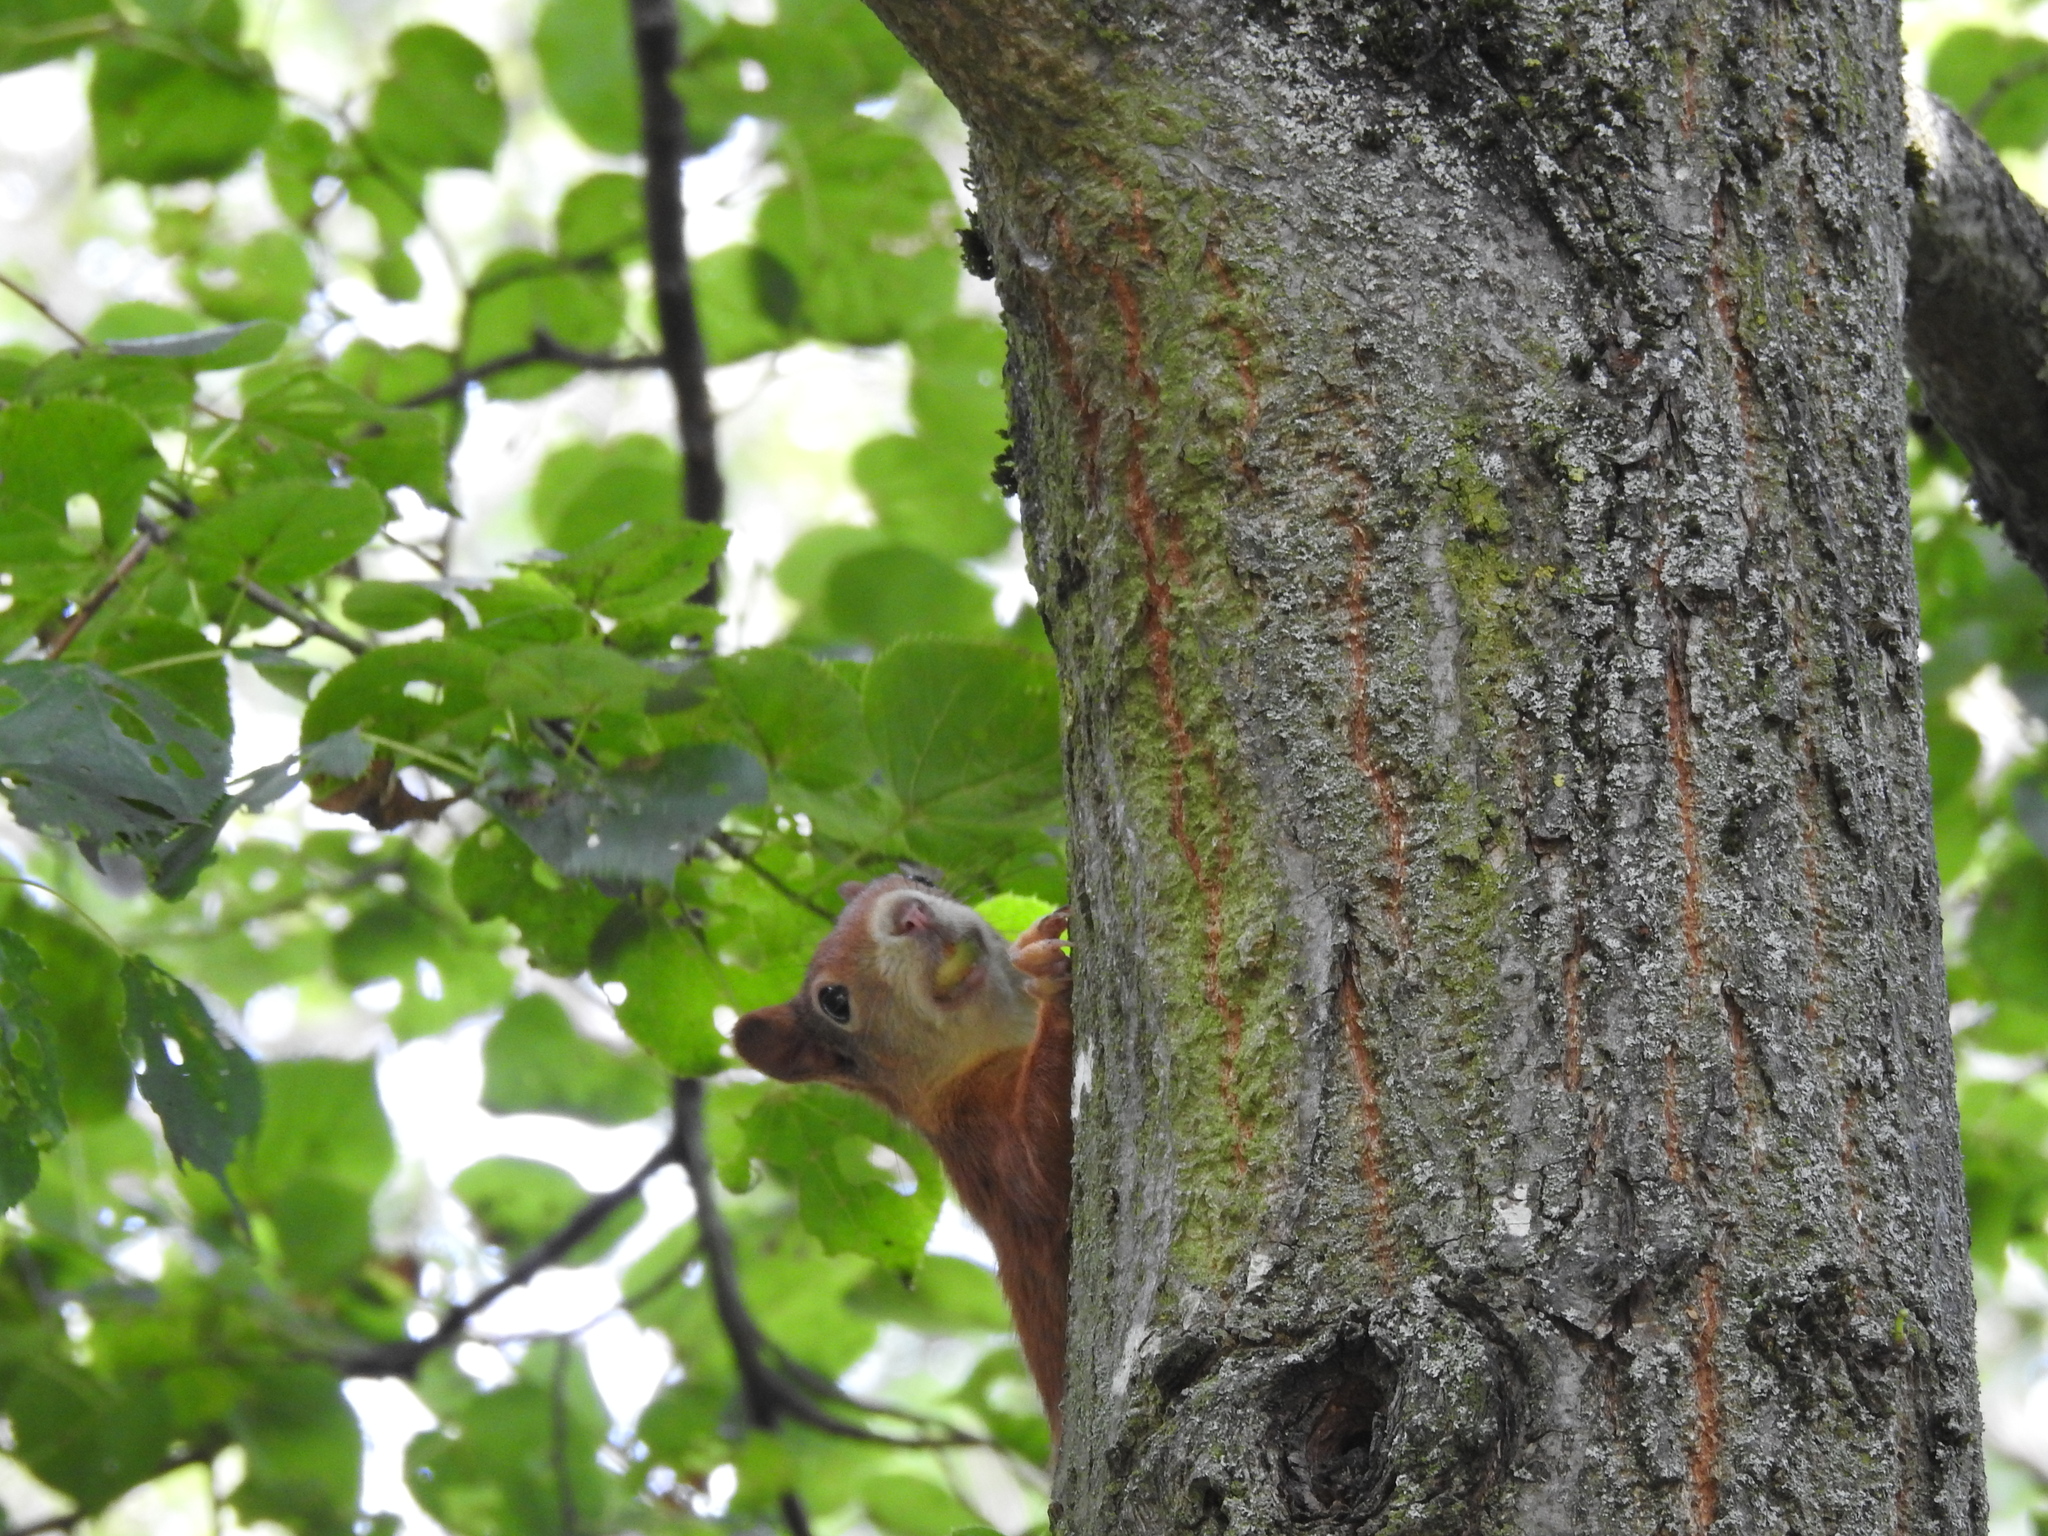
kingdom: Animalia
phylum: Chordata
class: Mammalia
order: Rodentia
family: Sciuridae
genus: Sciurus
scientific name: Sciurus vulgaris
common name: Eurasian red squirrel
